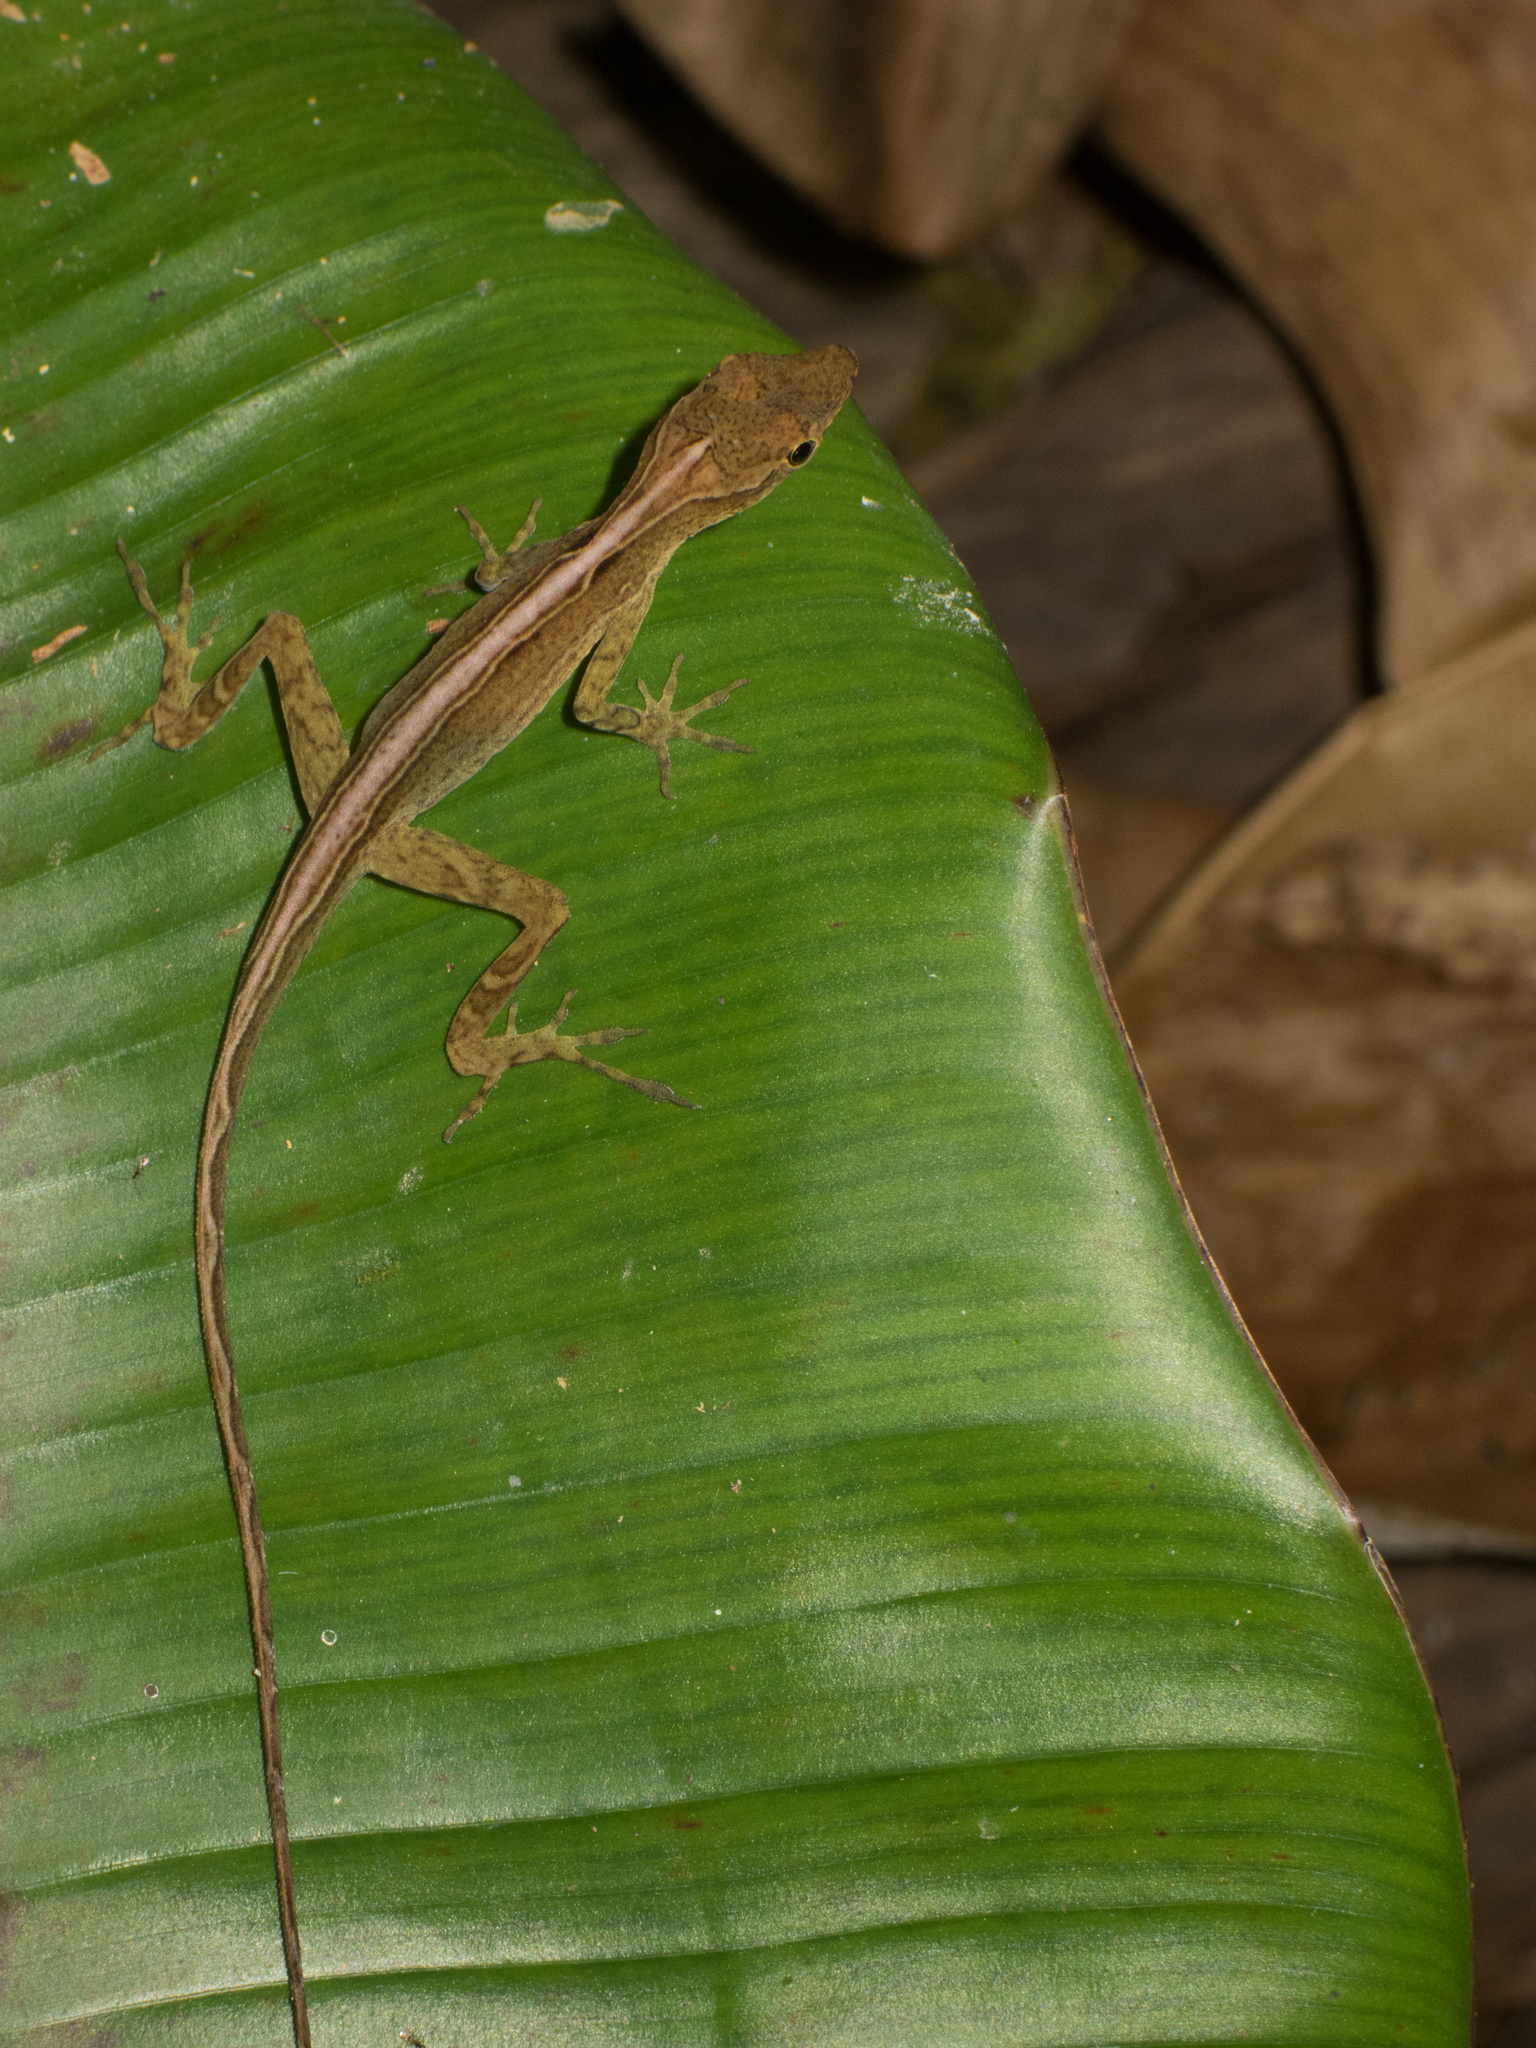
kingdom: Animalia
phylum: Chordata
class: Squamata
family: Dactyloidae
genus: Anolis
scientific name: Anolis polylepis
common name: Many-scaled anole
